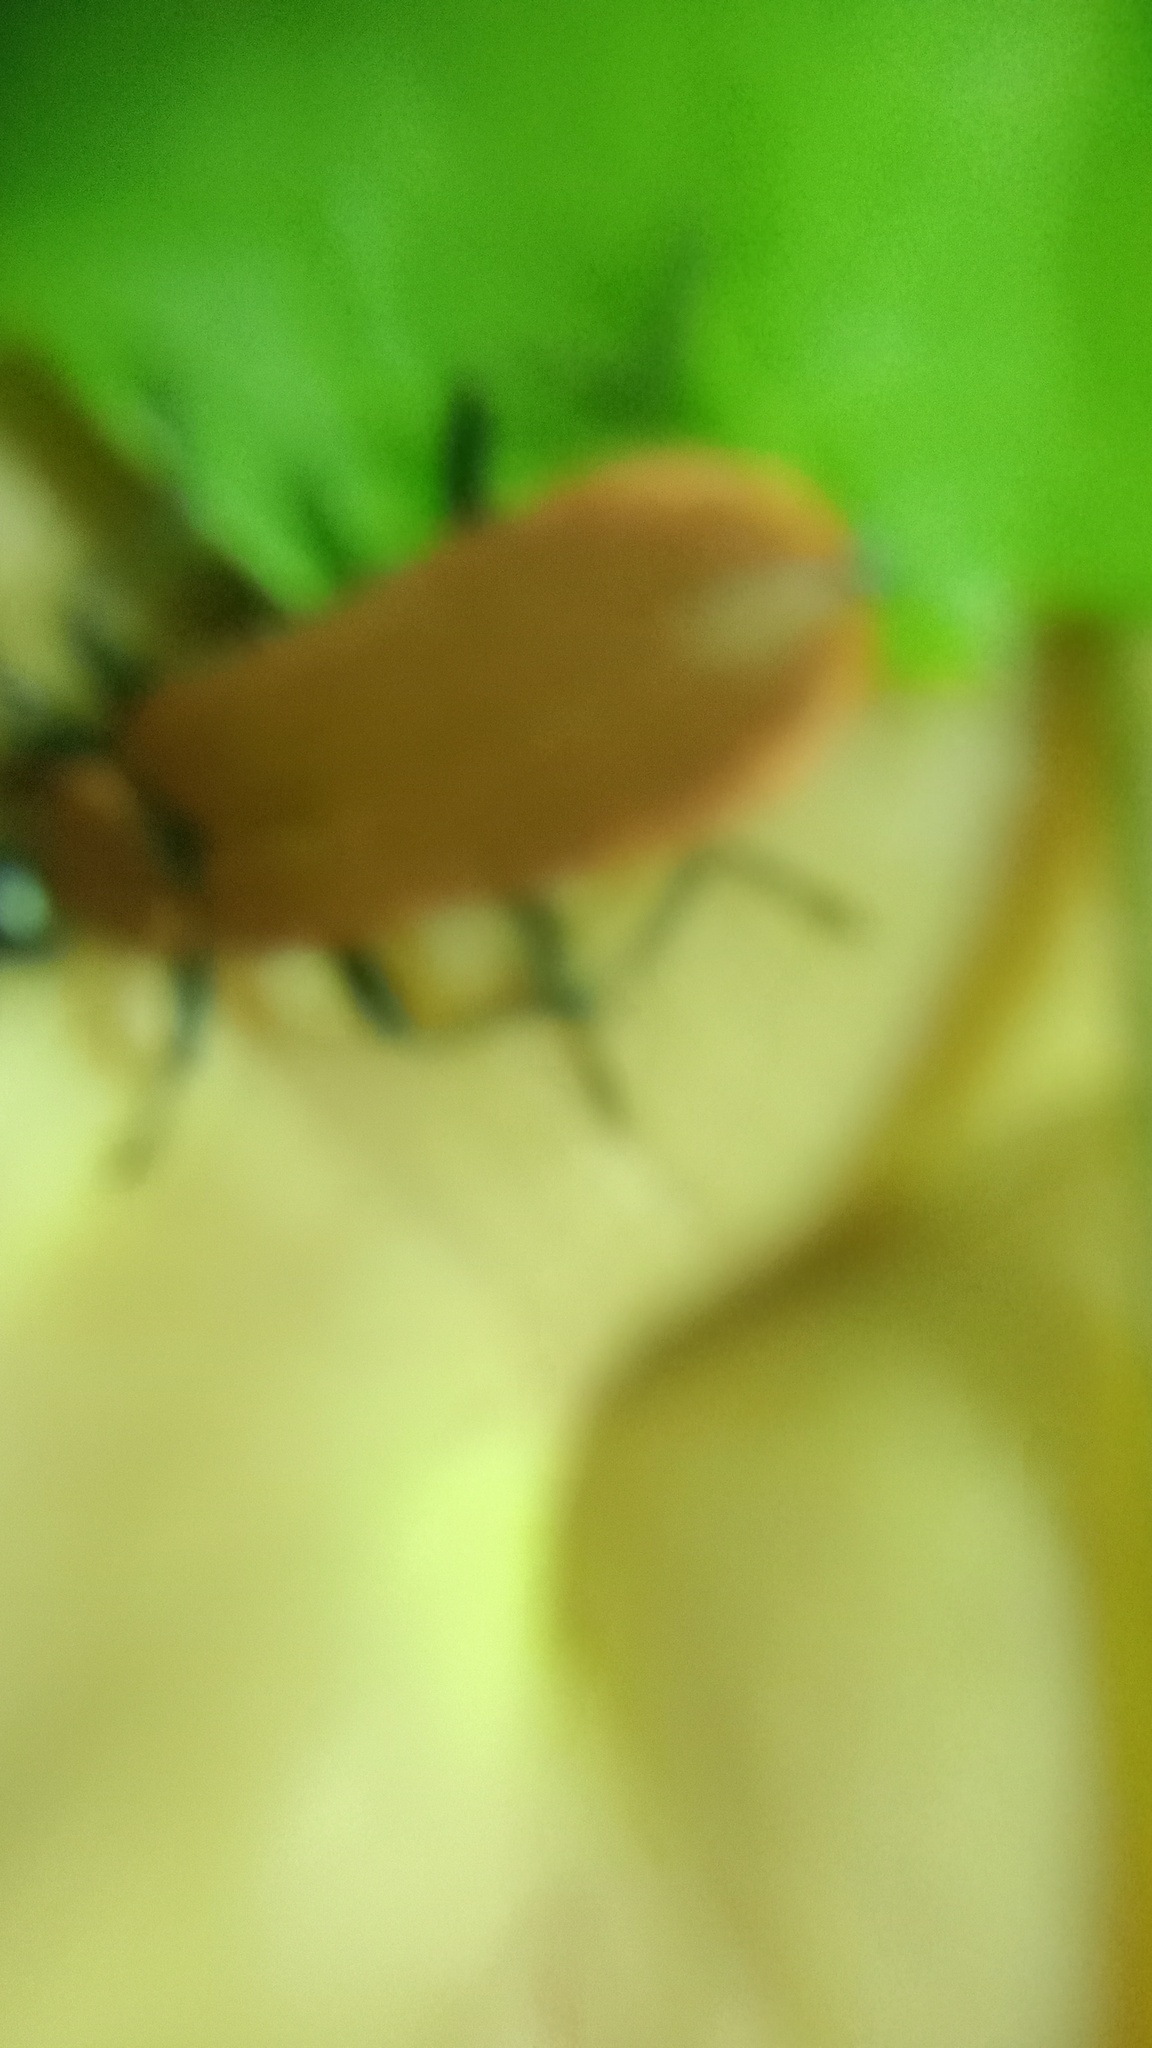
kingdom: Animalia
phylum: Arthropoda
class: Insecta
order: Coleoptera
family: Pyrochroidae
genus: Pyrochroa
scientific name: Pyrochroa coccinea
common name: Black-headed cardinal beetle
